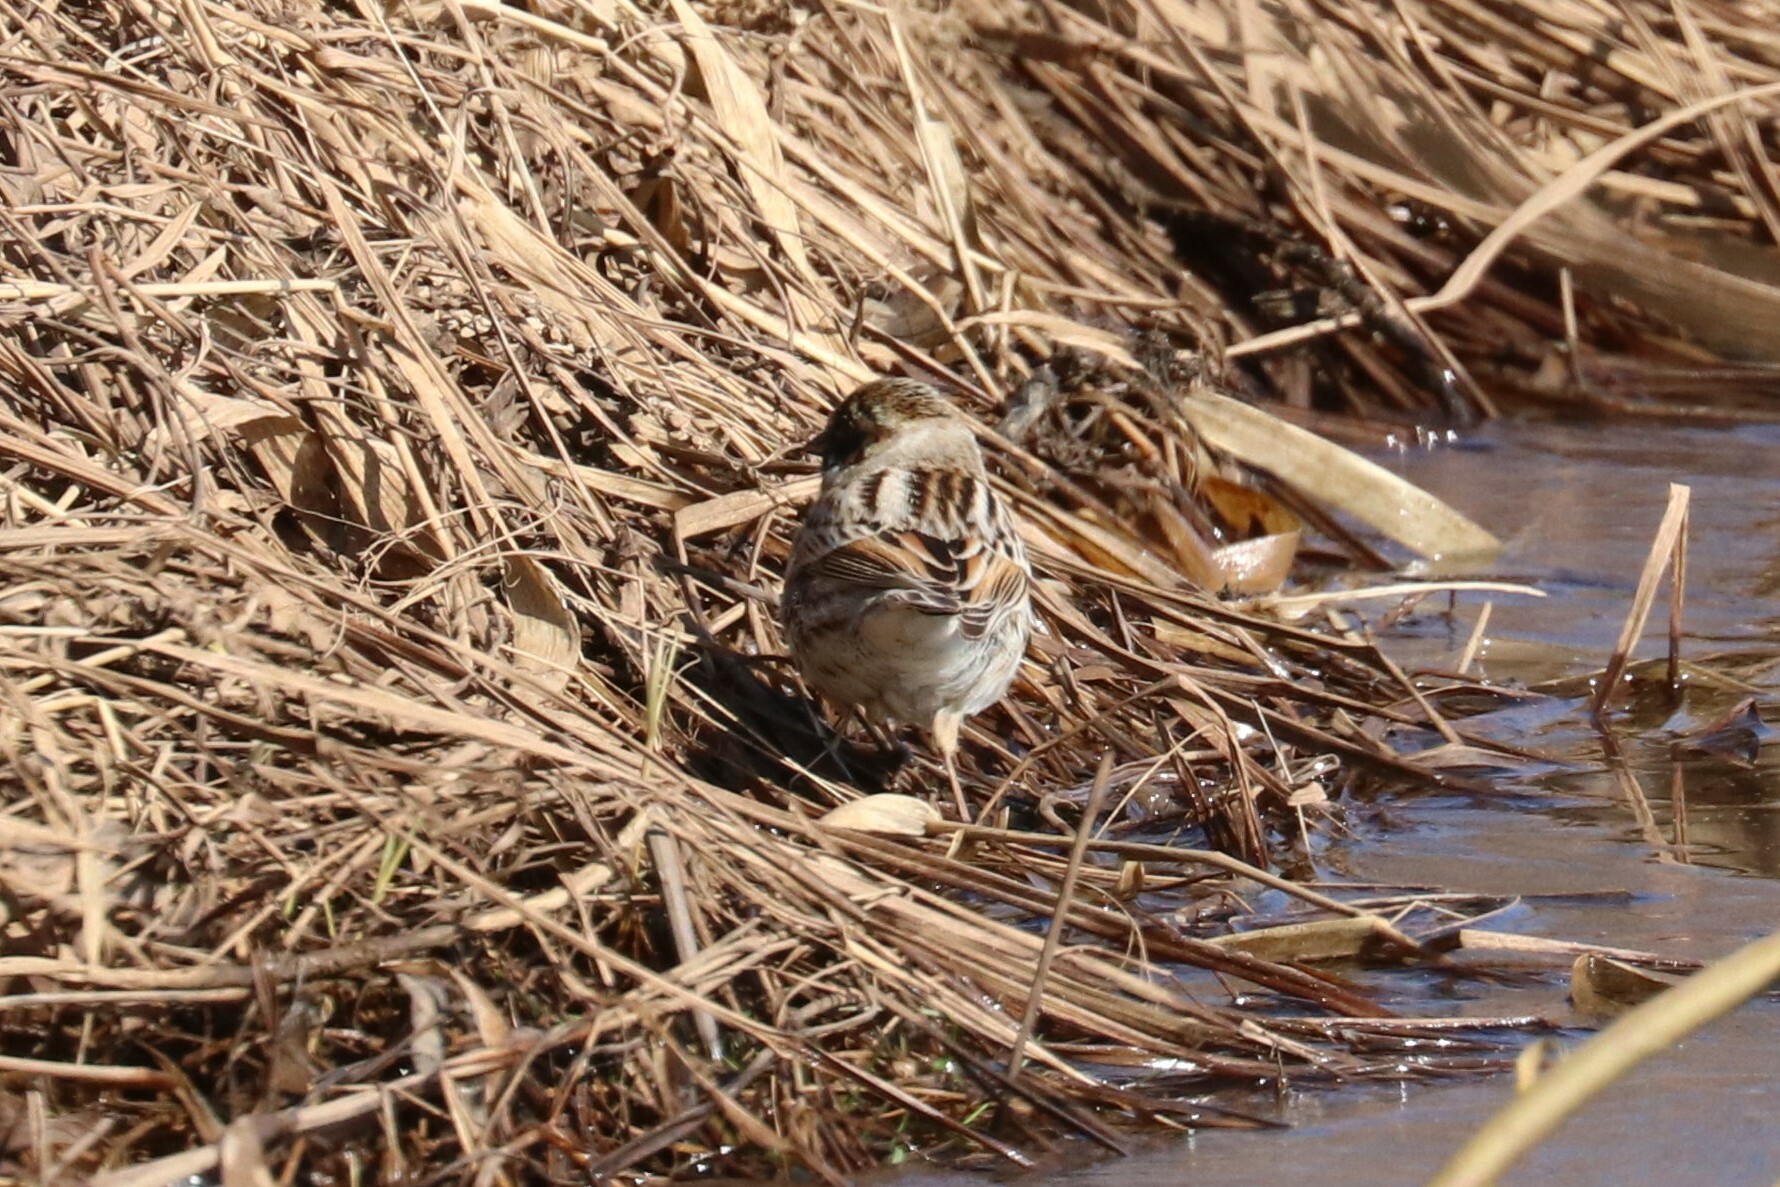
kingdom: Animalia
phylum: Chordata
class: Aves
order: Passeriformes
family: Emberizidae
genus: Emberiza
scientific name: Emberiza schoeniclus
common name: Reed bunting
